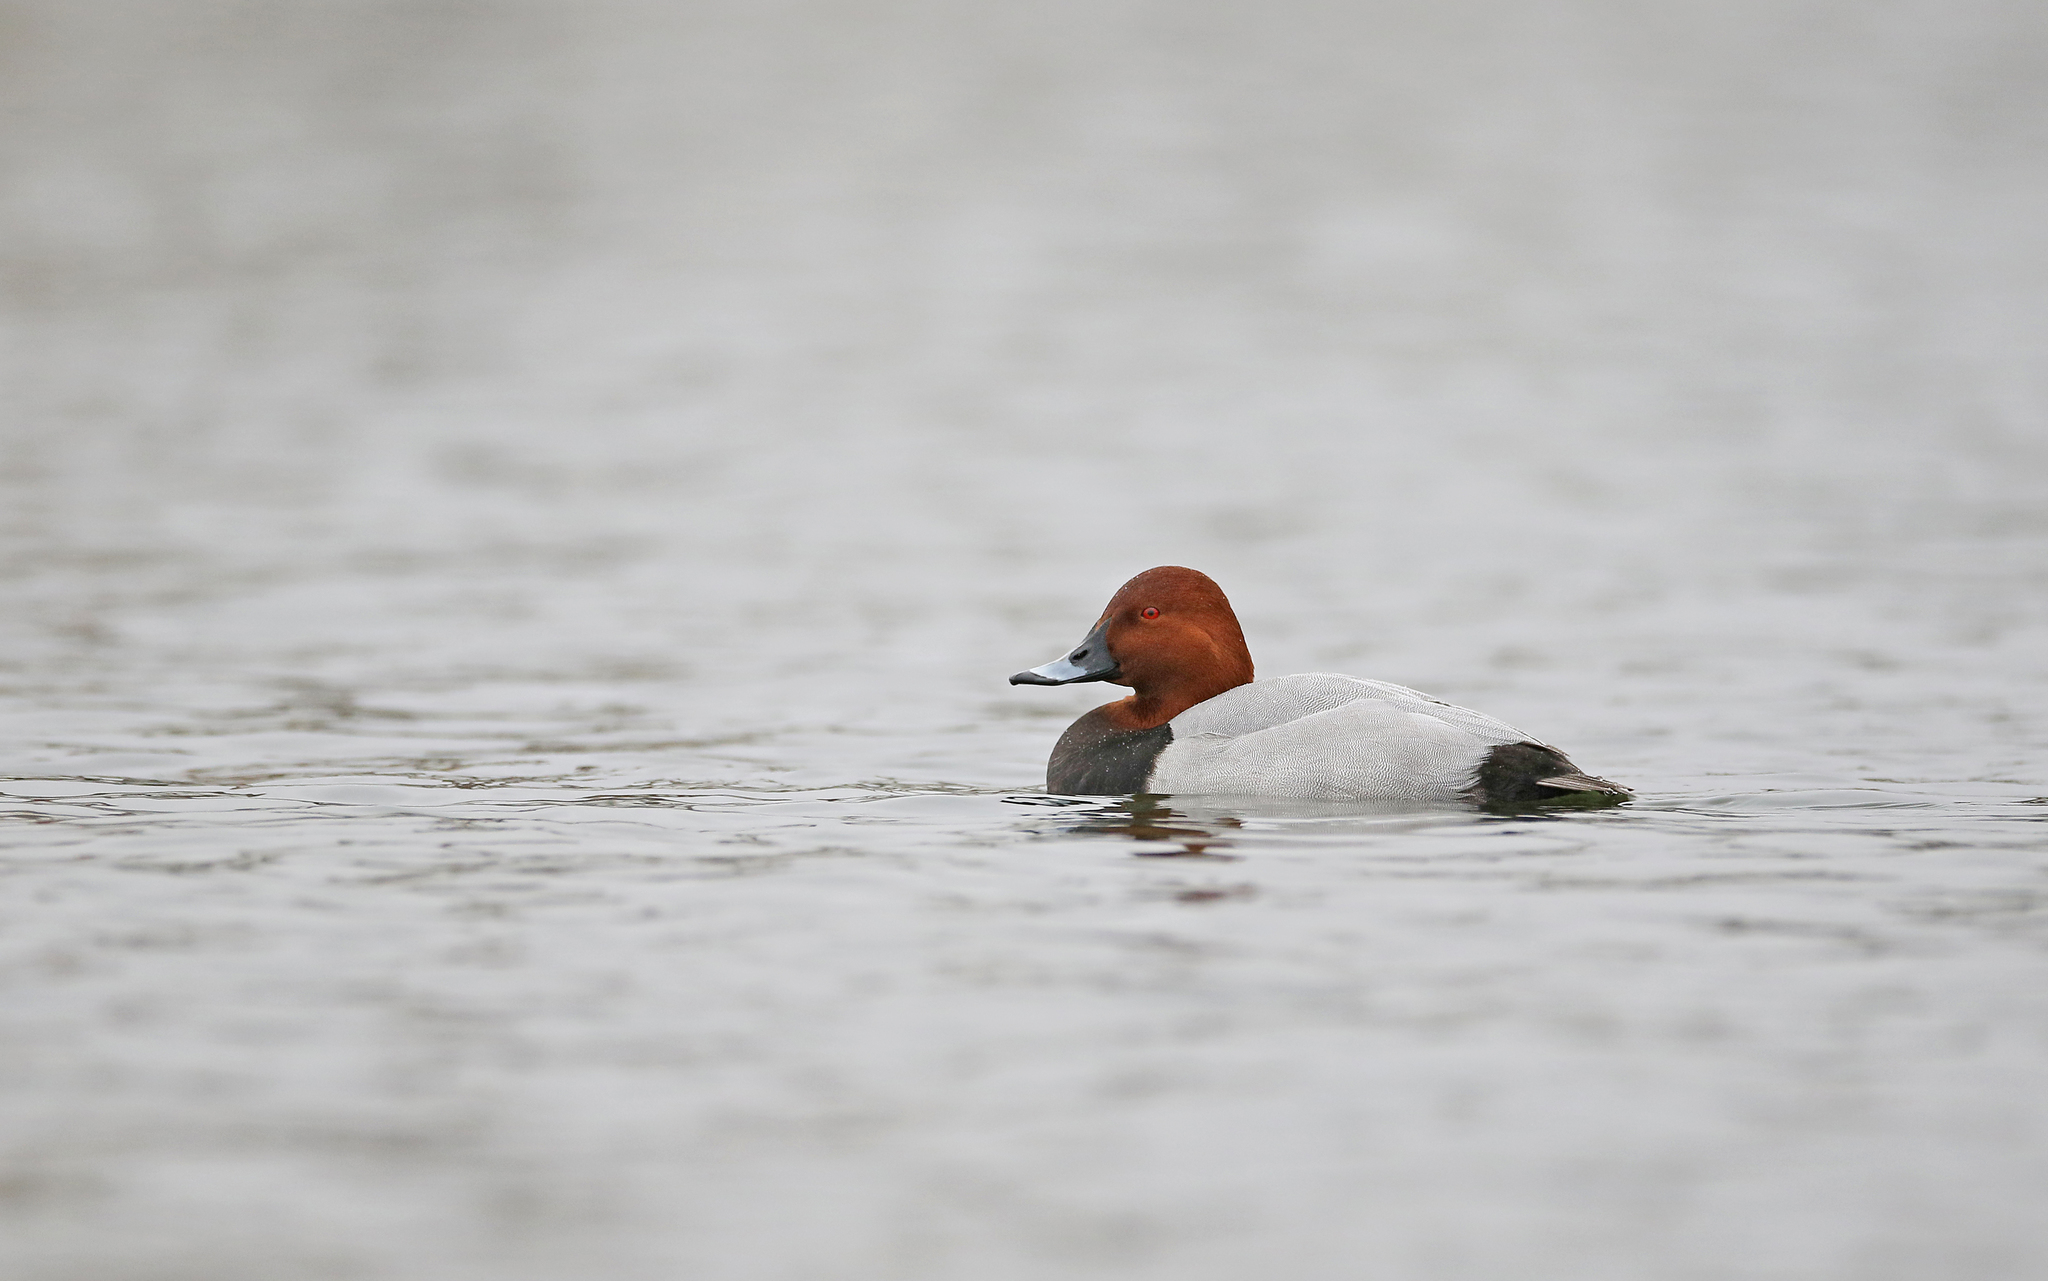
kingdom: Animalia
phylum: Chordata
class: Aves
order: Anseriformes
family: Anatidae
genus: Aythya
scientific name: Aythya ferina
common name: Common pochard
